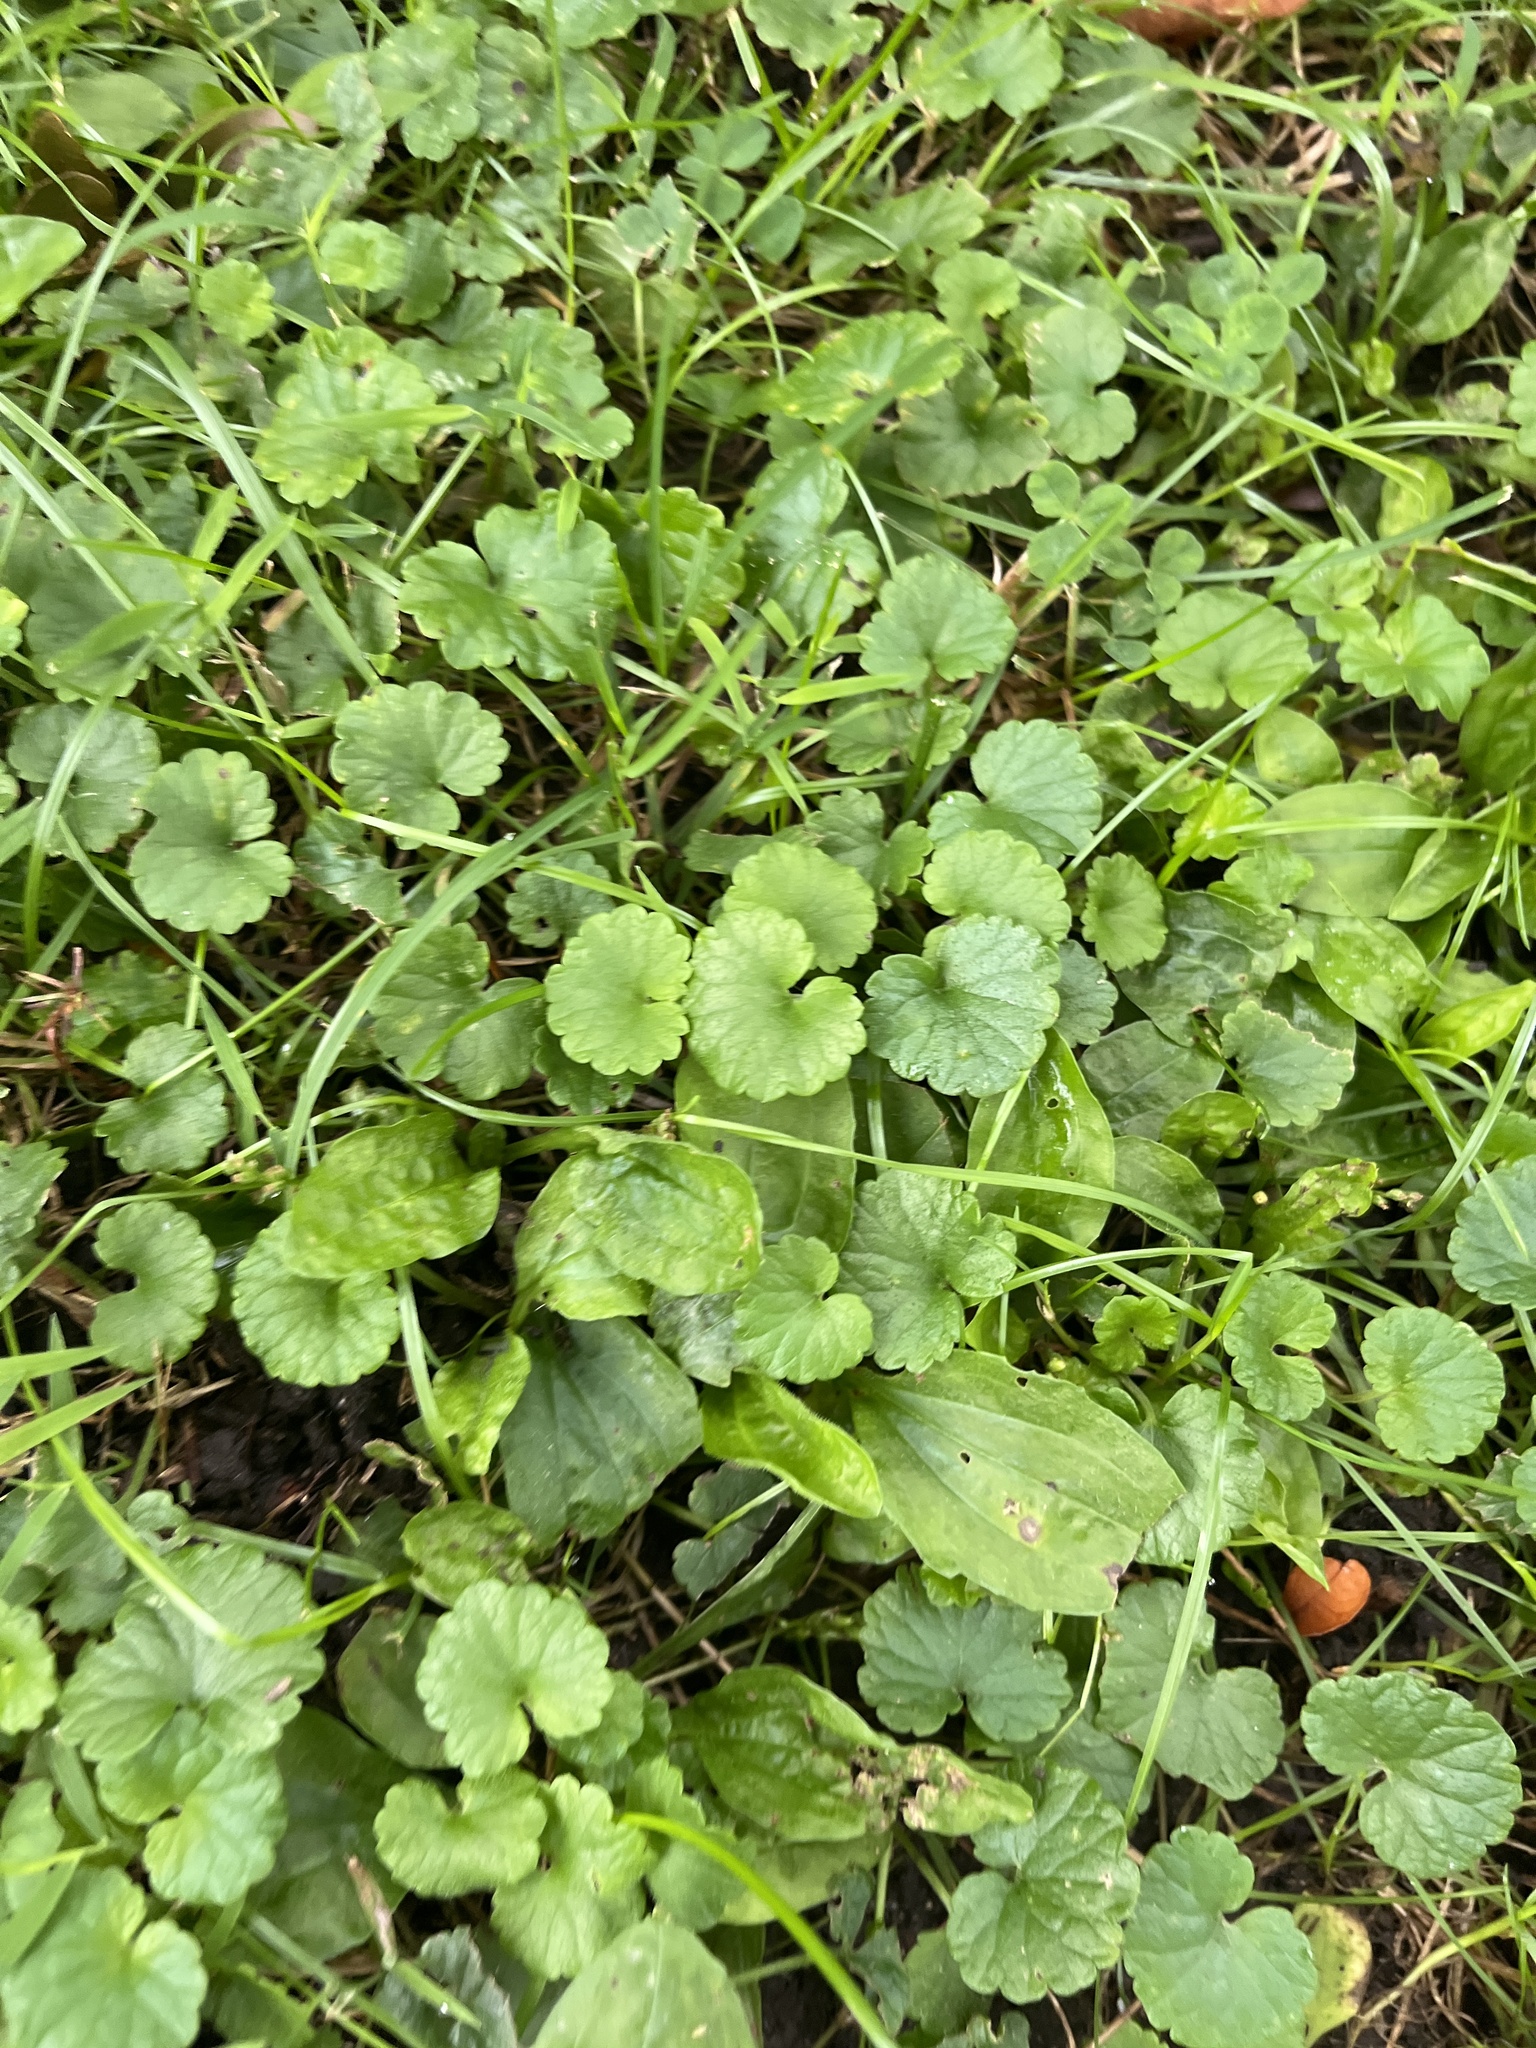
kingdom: Plantae
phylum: Tracheophyta
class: Magnoliopsida
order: Lamiales
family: Lamiaceae
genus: Glechoma
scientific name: Glechoma hederacea
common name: Ground ivy
